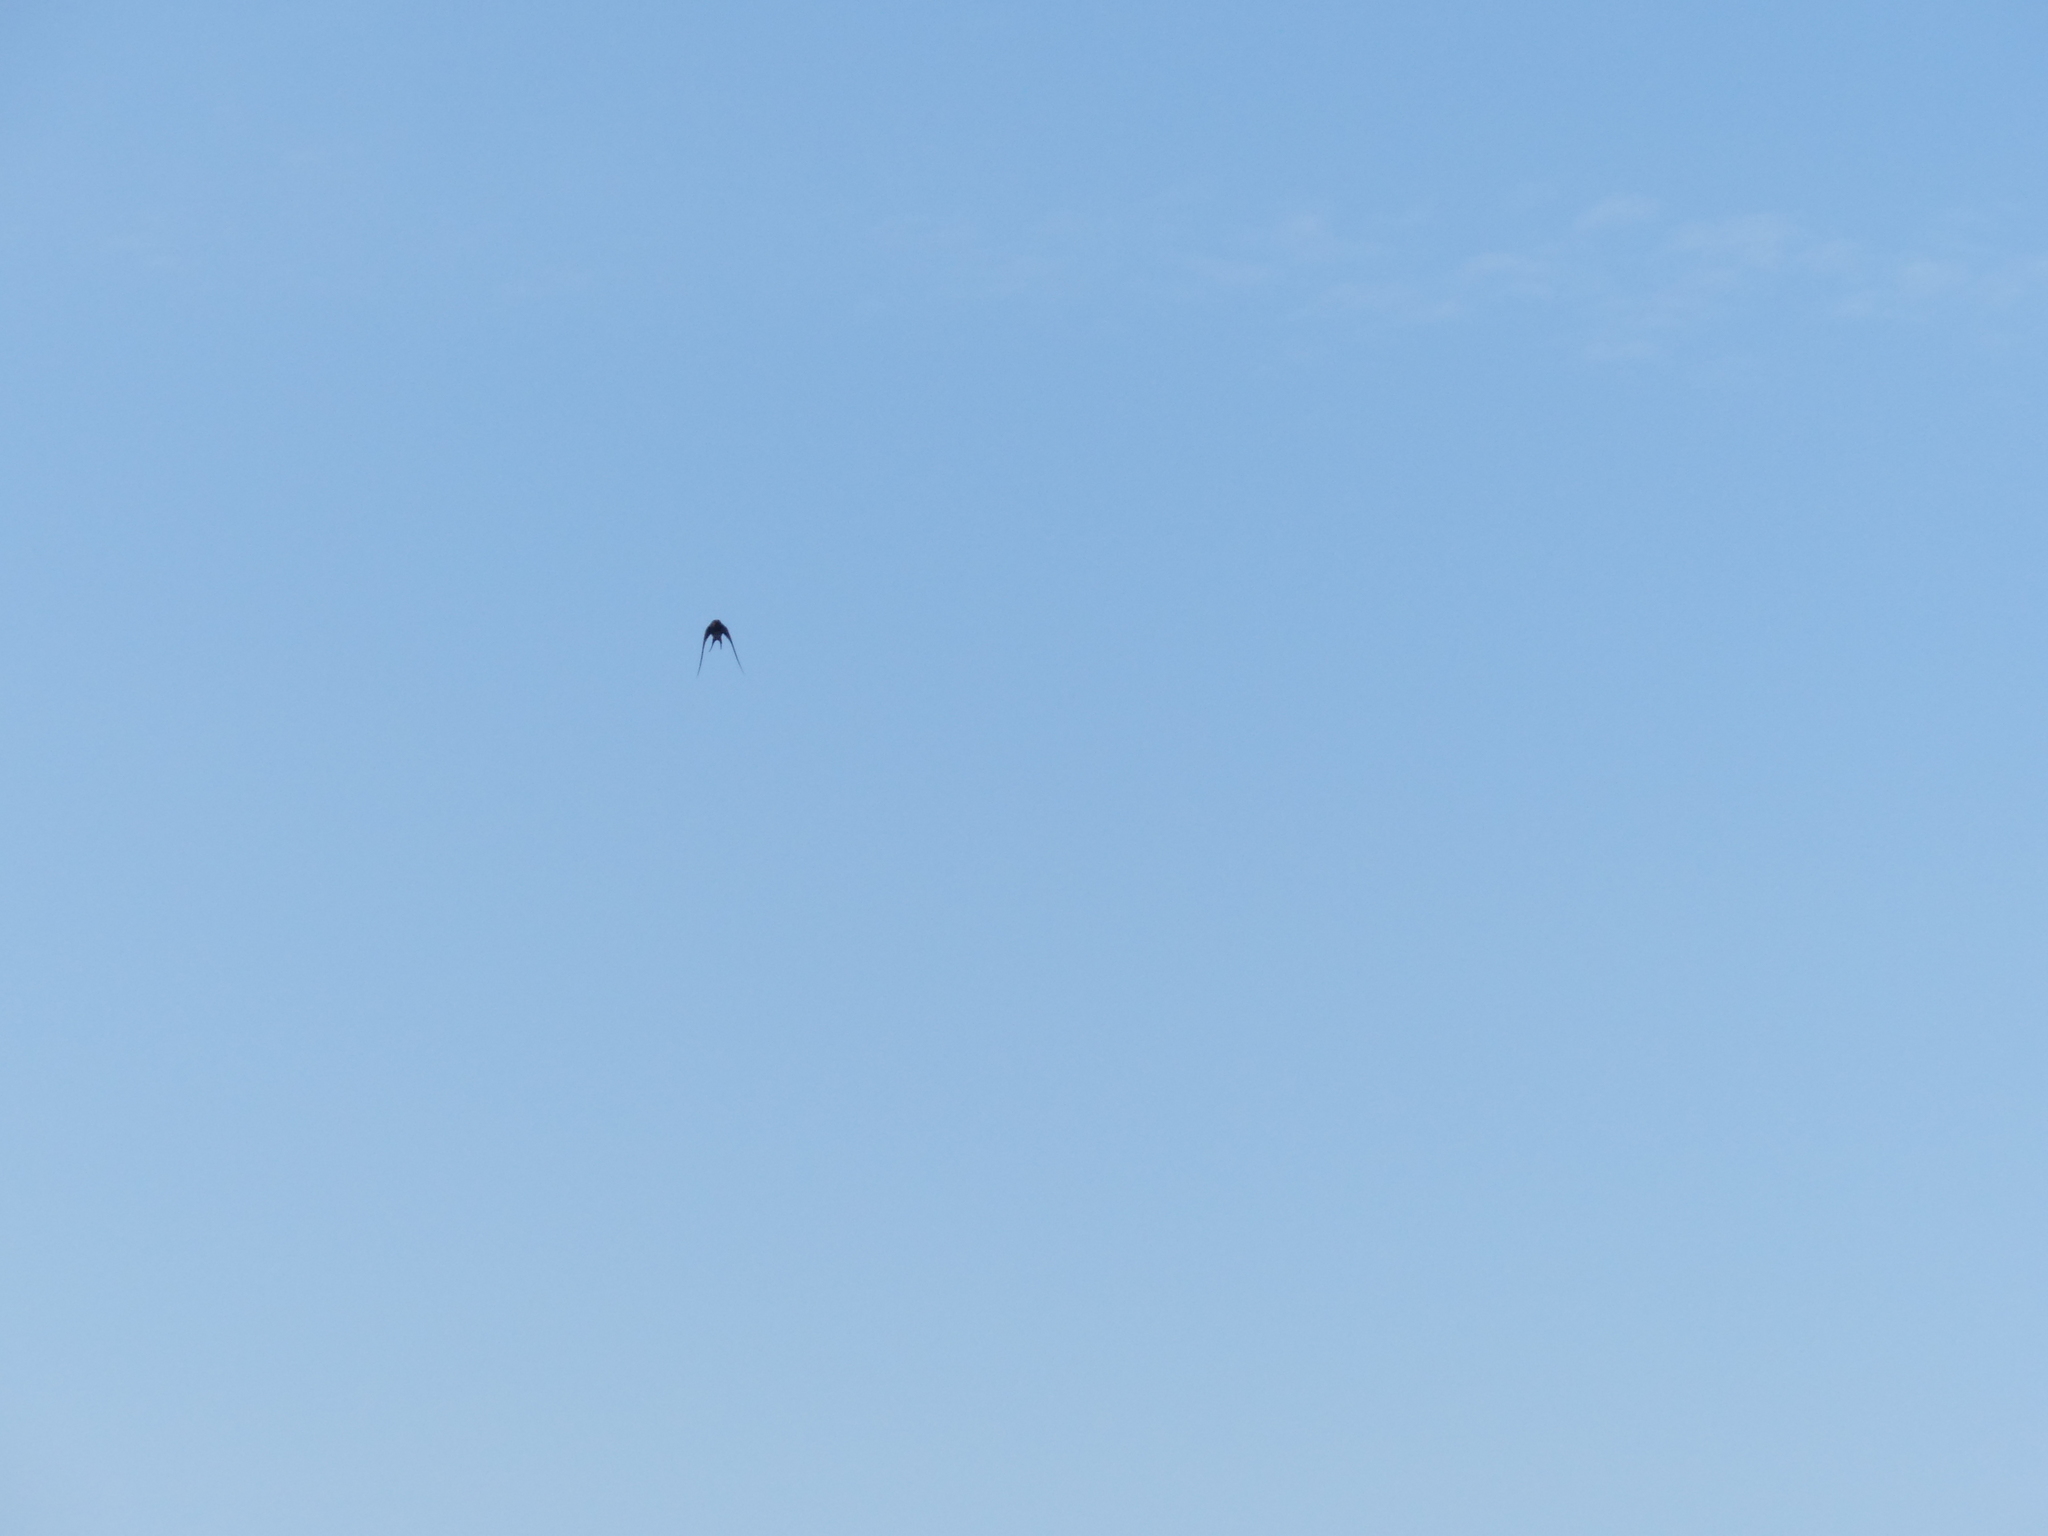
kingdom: Animalia
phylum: Chordata
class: Aves
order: Apodiformes
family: Apodidae
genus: Apus
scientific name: Apus apus
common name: Common swift
